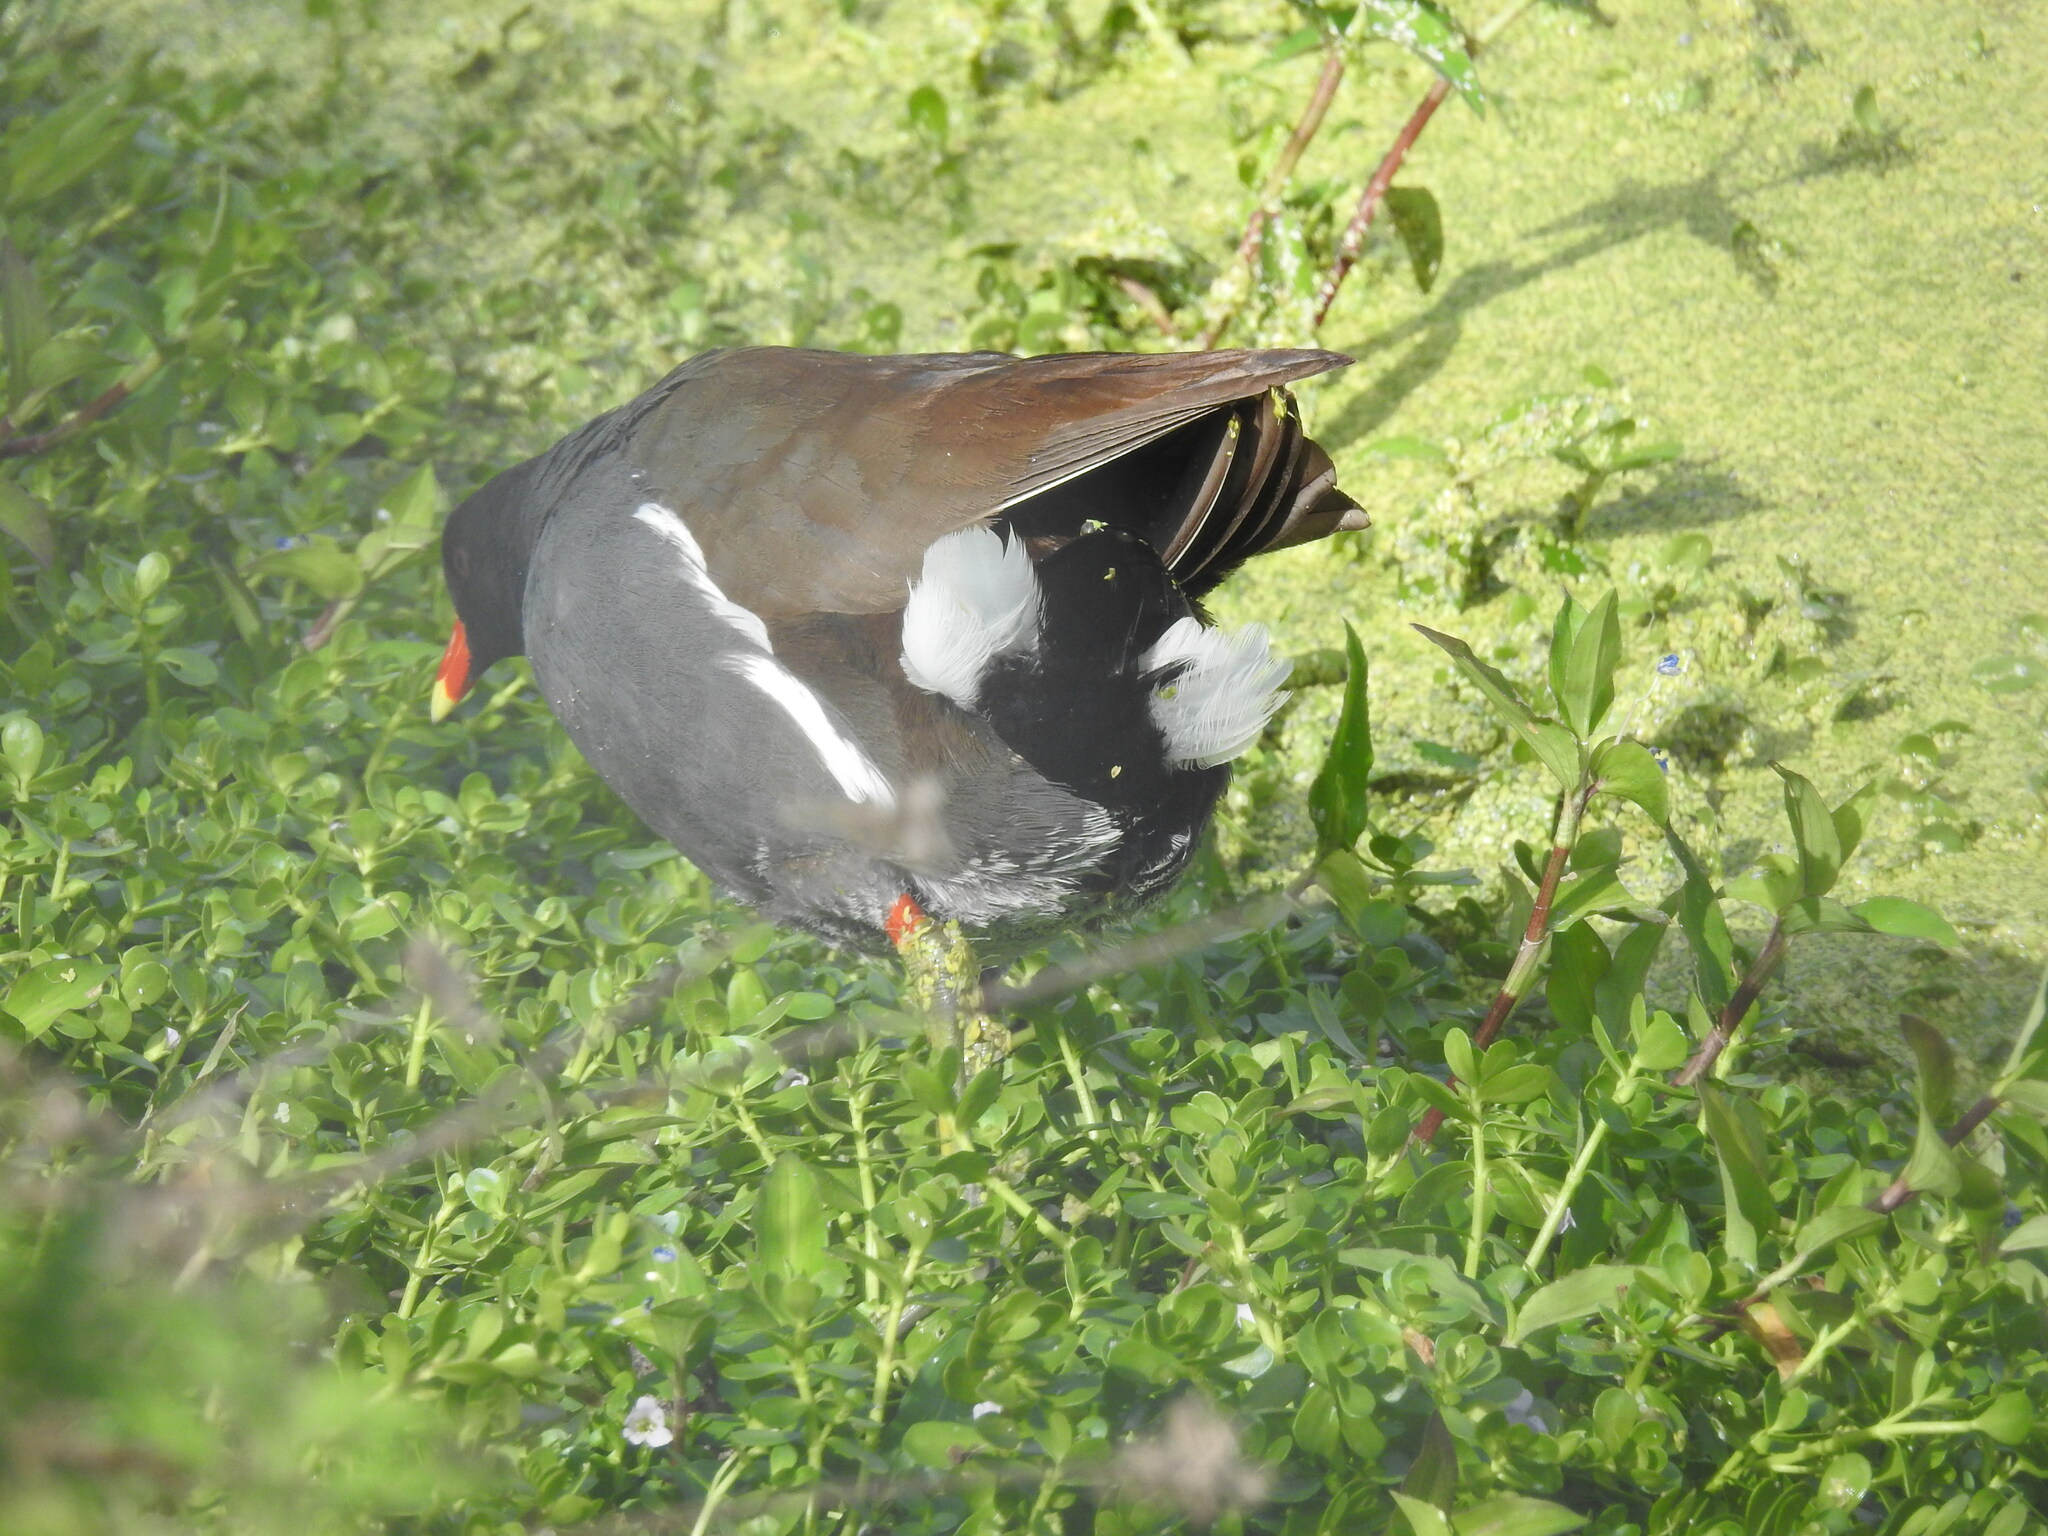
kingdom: Animalia
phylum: Chordata
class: Aves
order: Gruiformes
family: Rallidae
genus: Gallinula
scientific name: Gallinula chloropus
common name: Common moorhen
